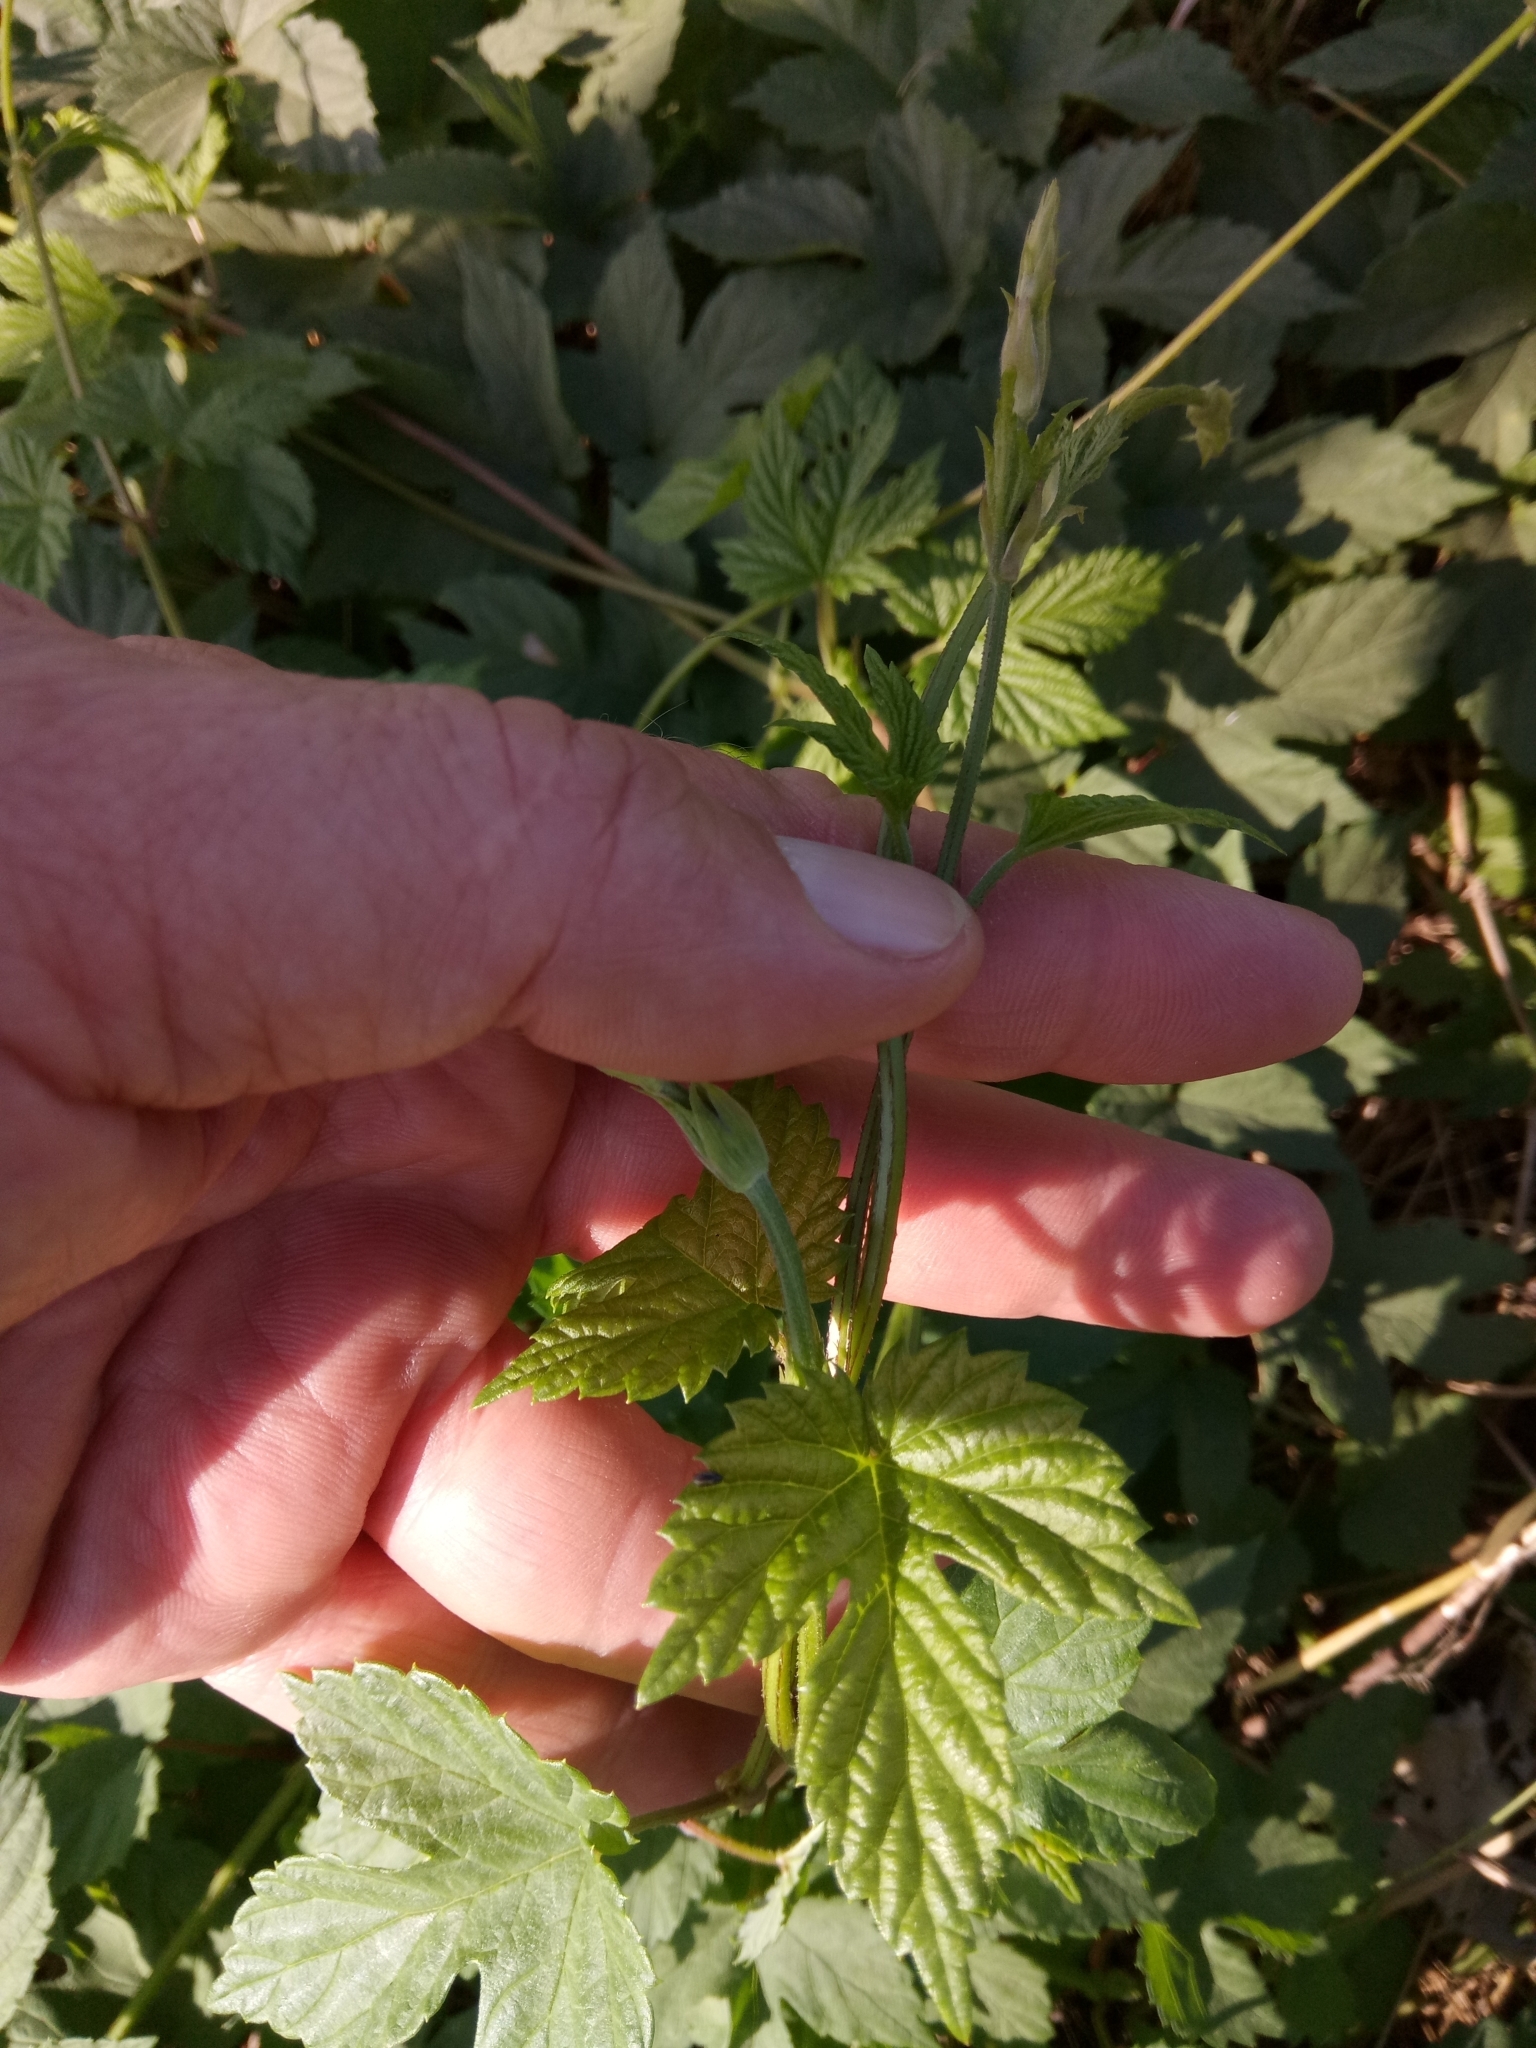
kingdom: Plantae
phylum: Tracheophyta
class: Magnoliopsida
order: Rosales
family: Cannabaceae
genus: Humulus
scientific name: Humulus lupulus
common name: Hop
